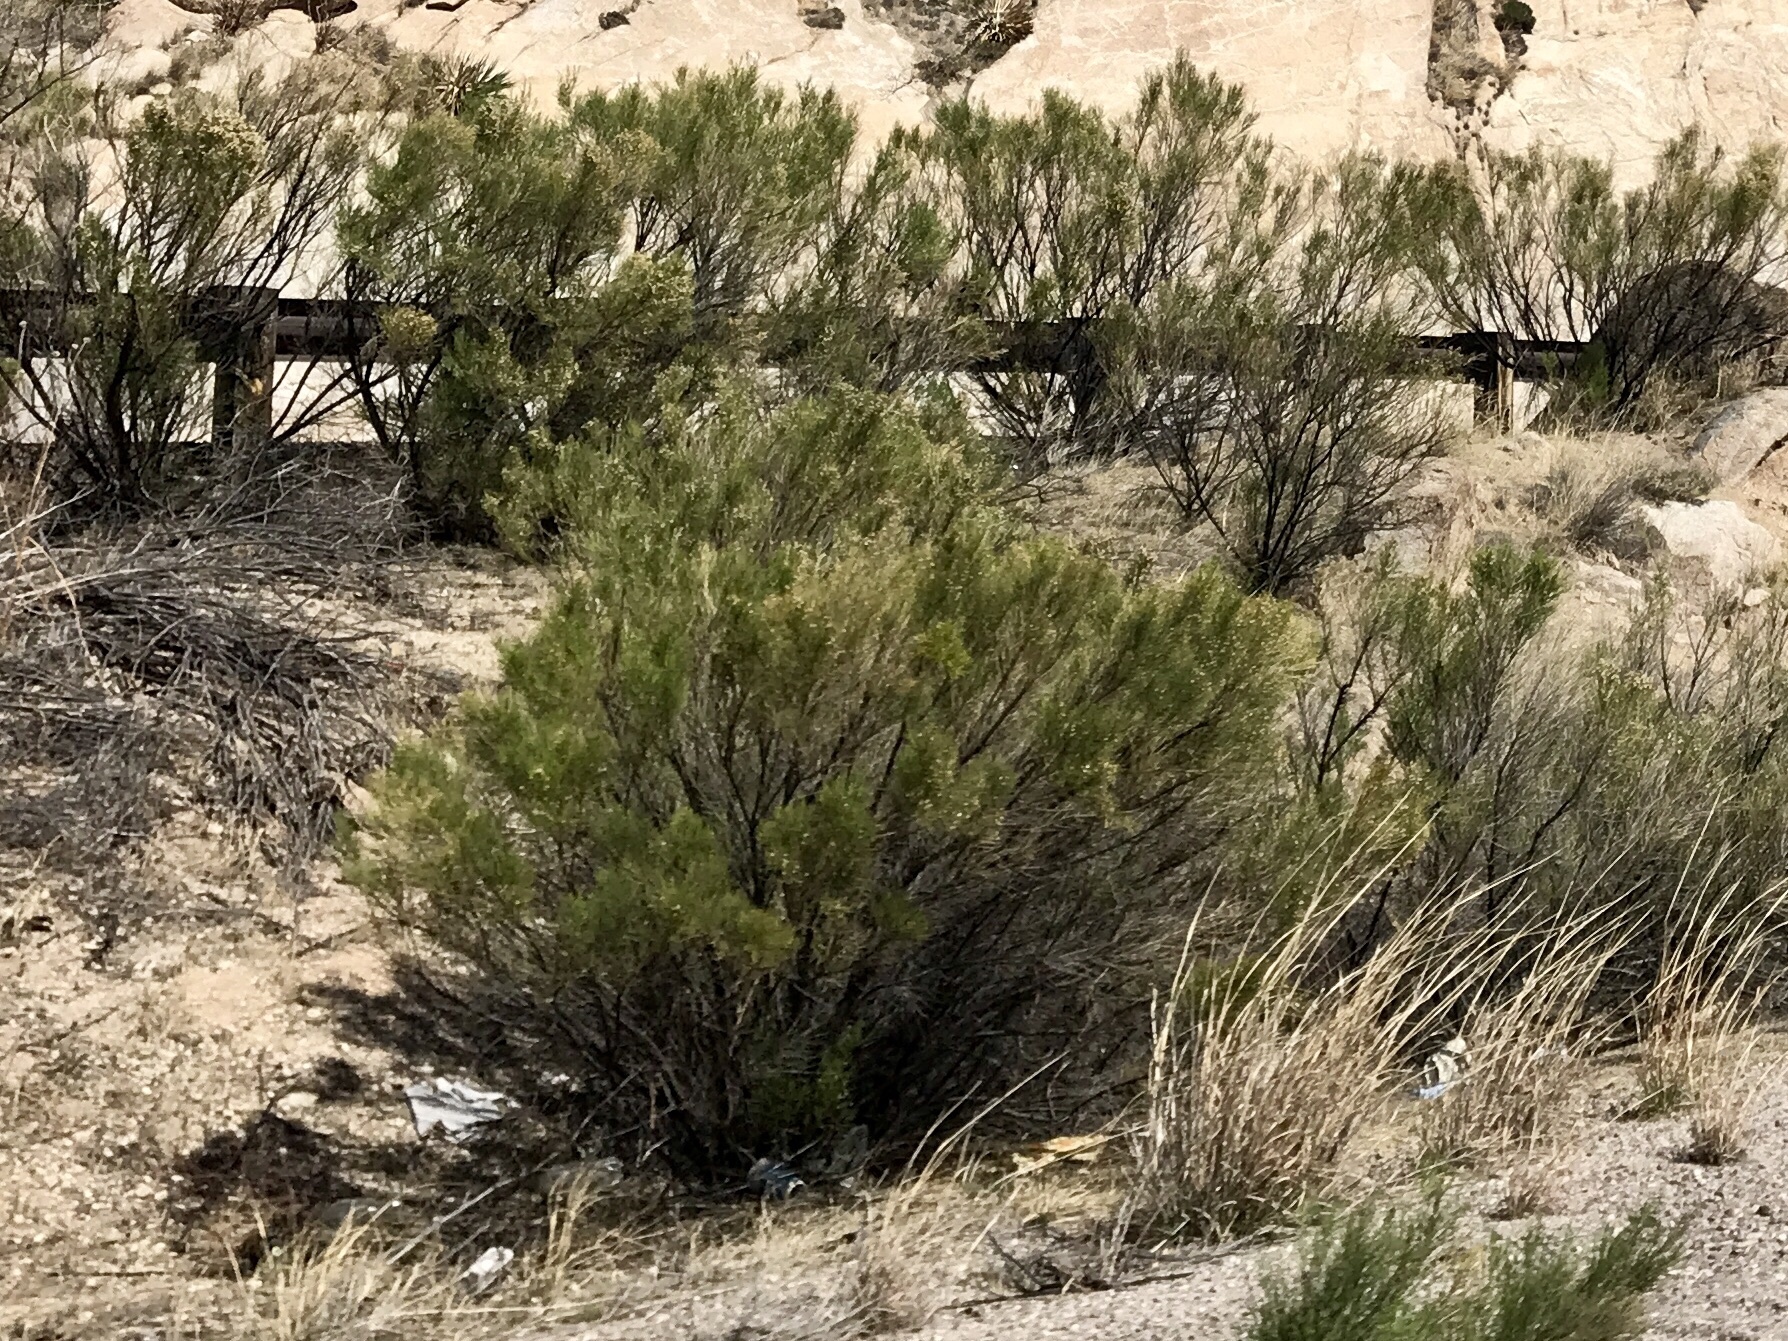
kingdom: Plantae
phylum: Tracheophyta
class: Magnoliopsida
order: Asterales
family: Asteraceae
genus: Baccharis
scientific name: Baccharis sarothroides
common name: Desert-broom
